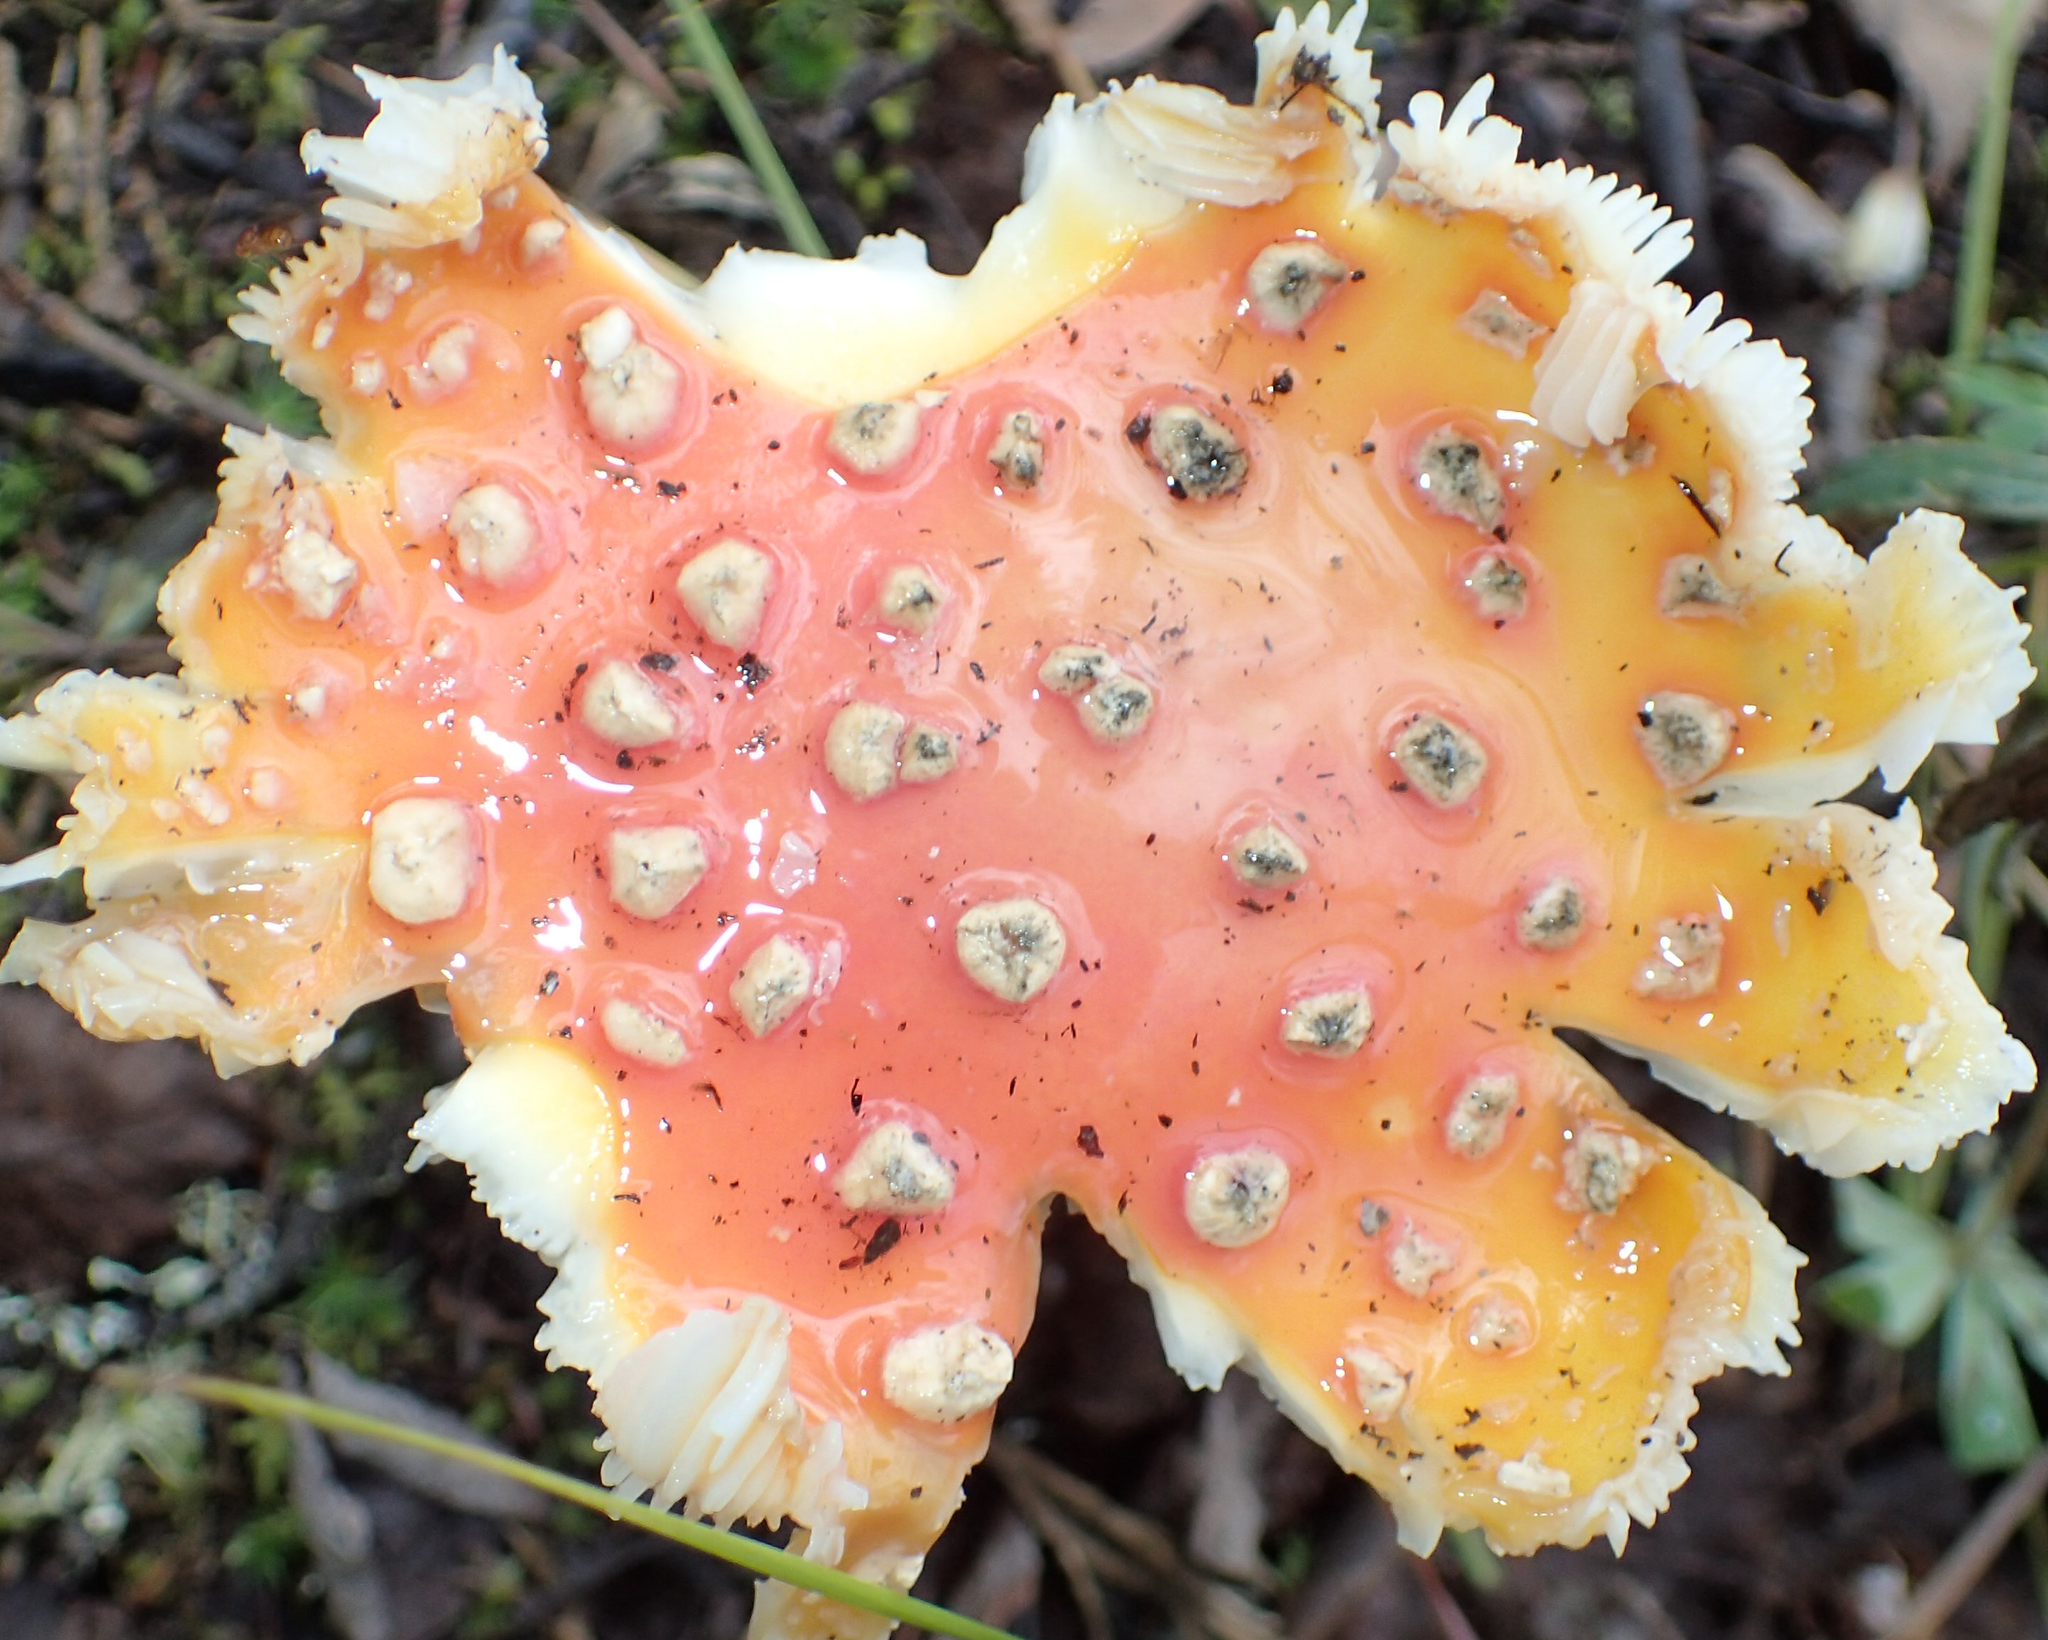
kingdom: Fungi
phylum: Basidiomycota
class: Agaricomycetes
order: Agaricales
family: Amanitaceae
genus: Amanita
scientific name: Amanita muscaria
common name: Fly agaric
